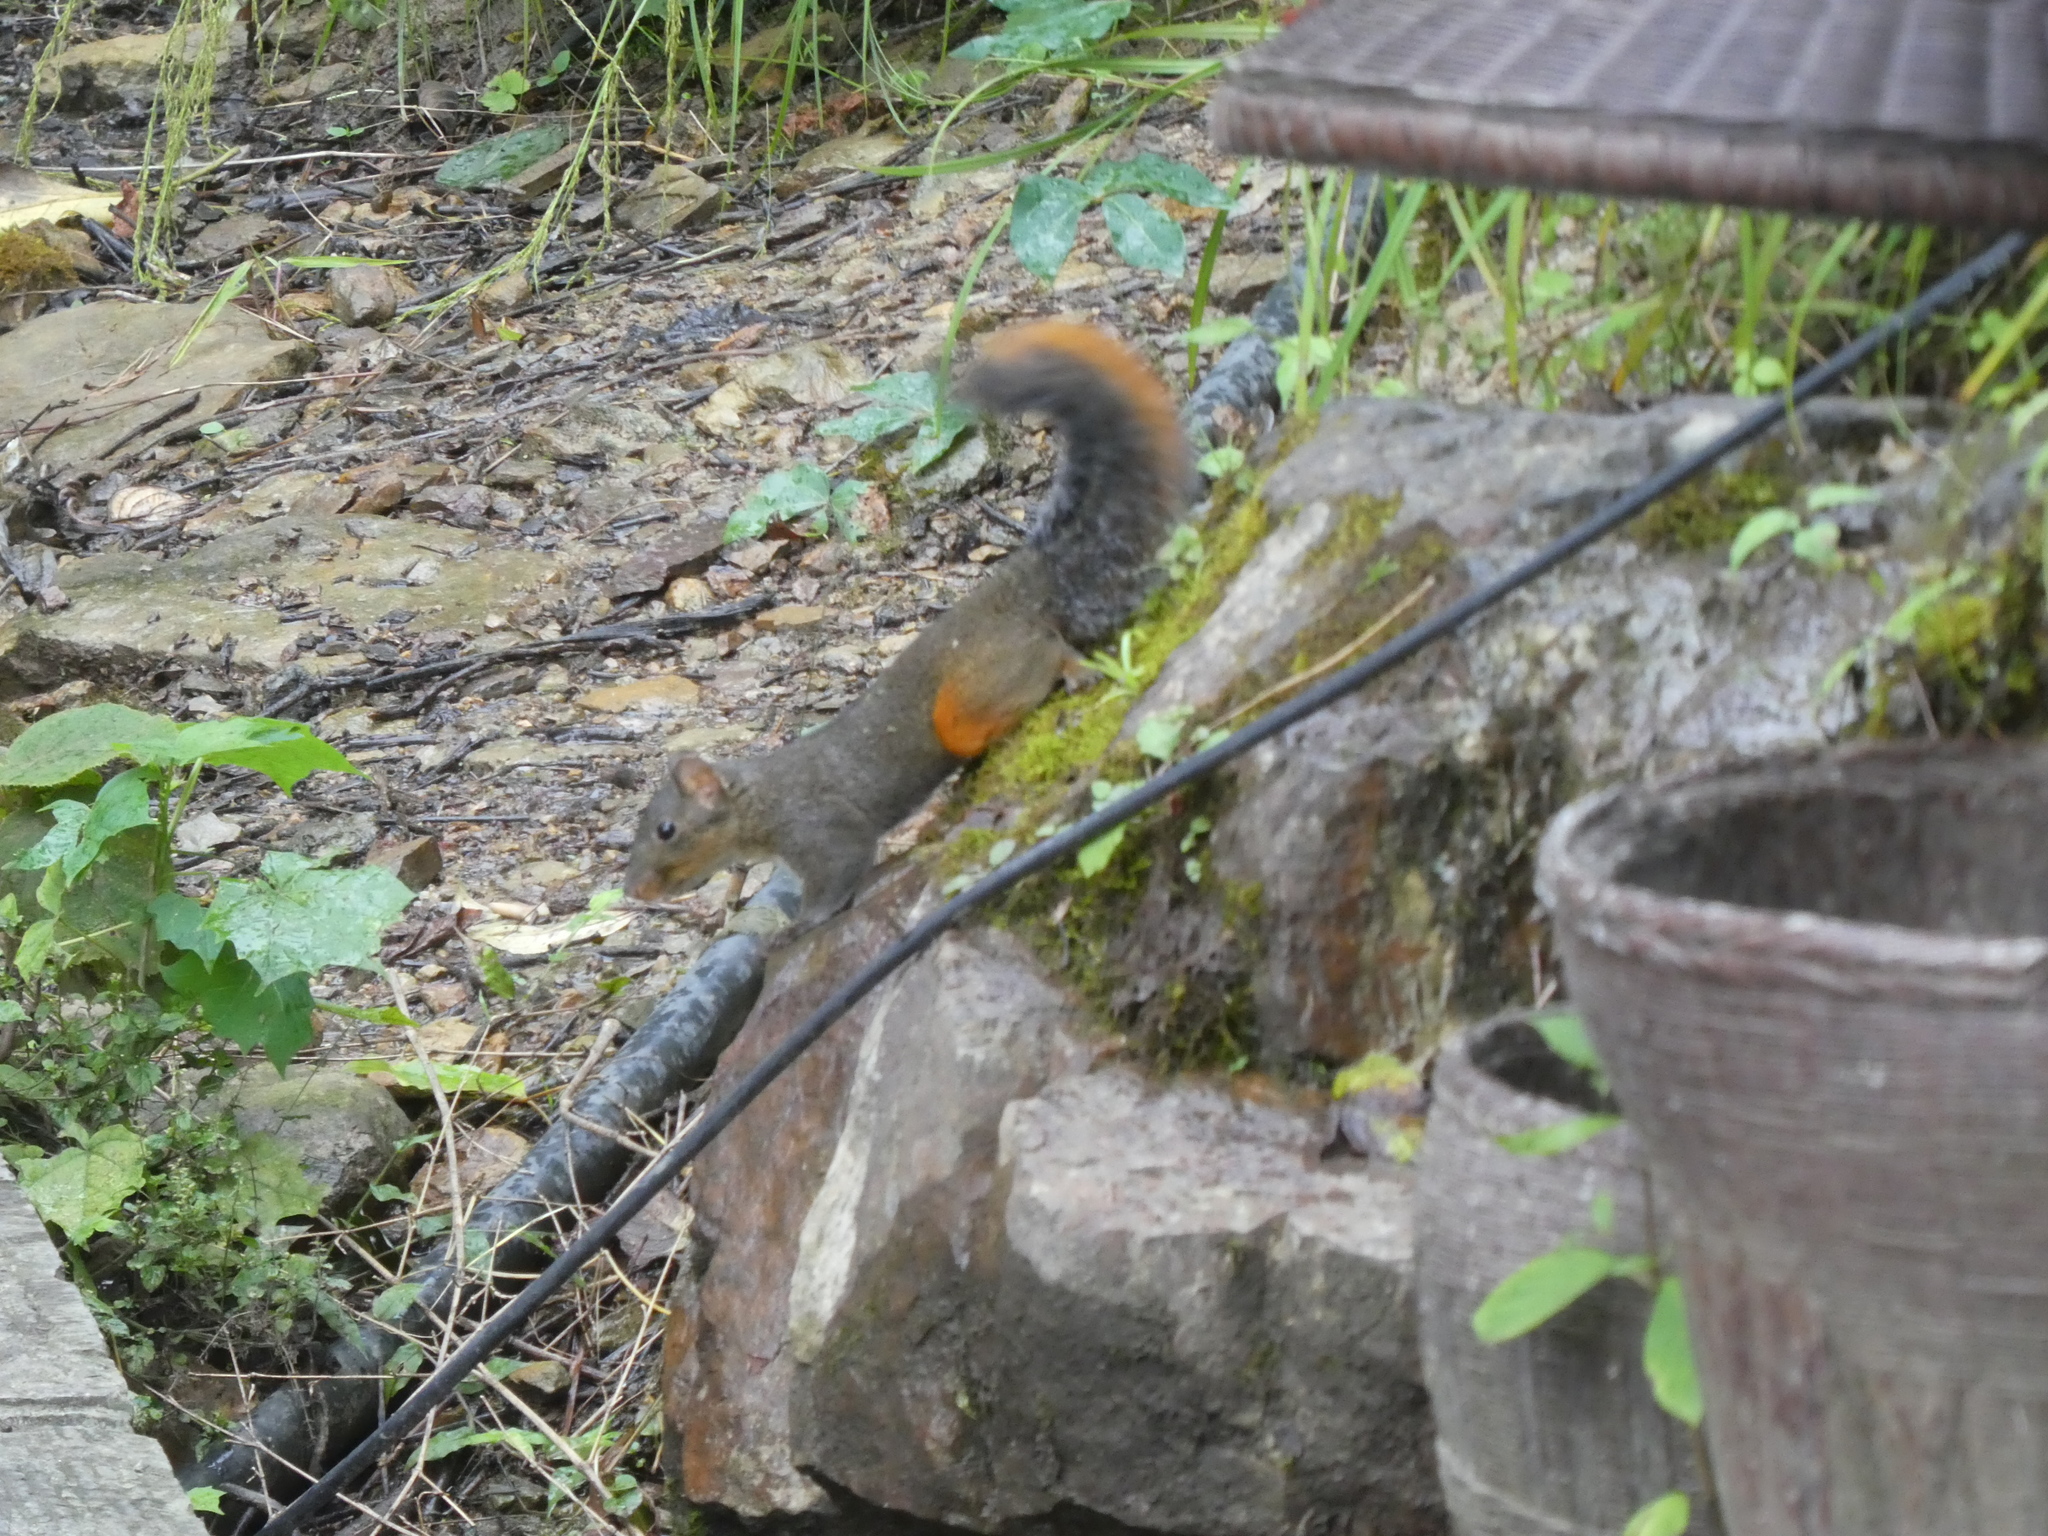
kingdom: Animalia
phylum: Chordata
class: Mammalia
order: Rodentia
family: Sciuridae
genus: Dremomys
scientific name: Dremomys pyrrhomerus
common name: Red-hipped squirrel
